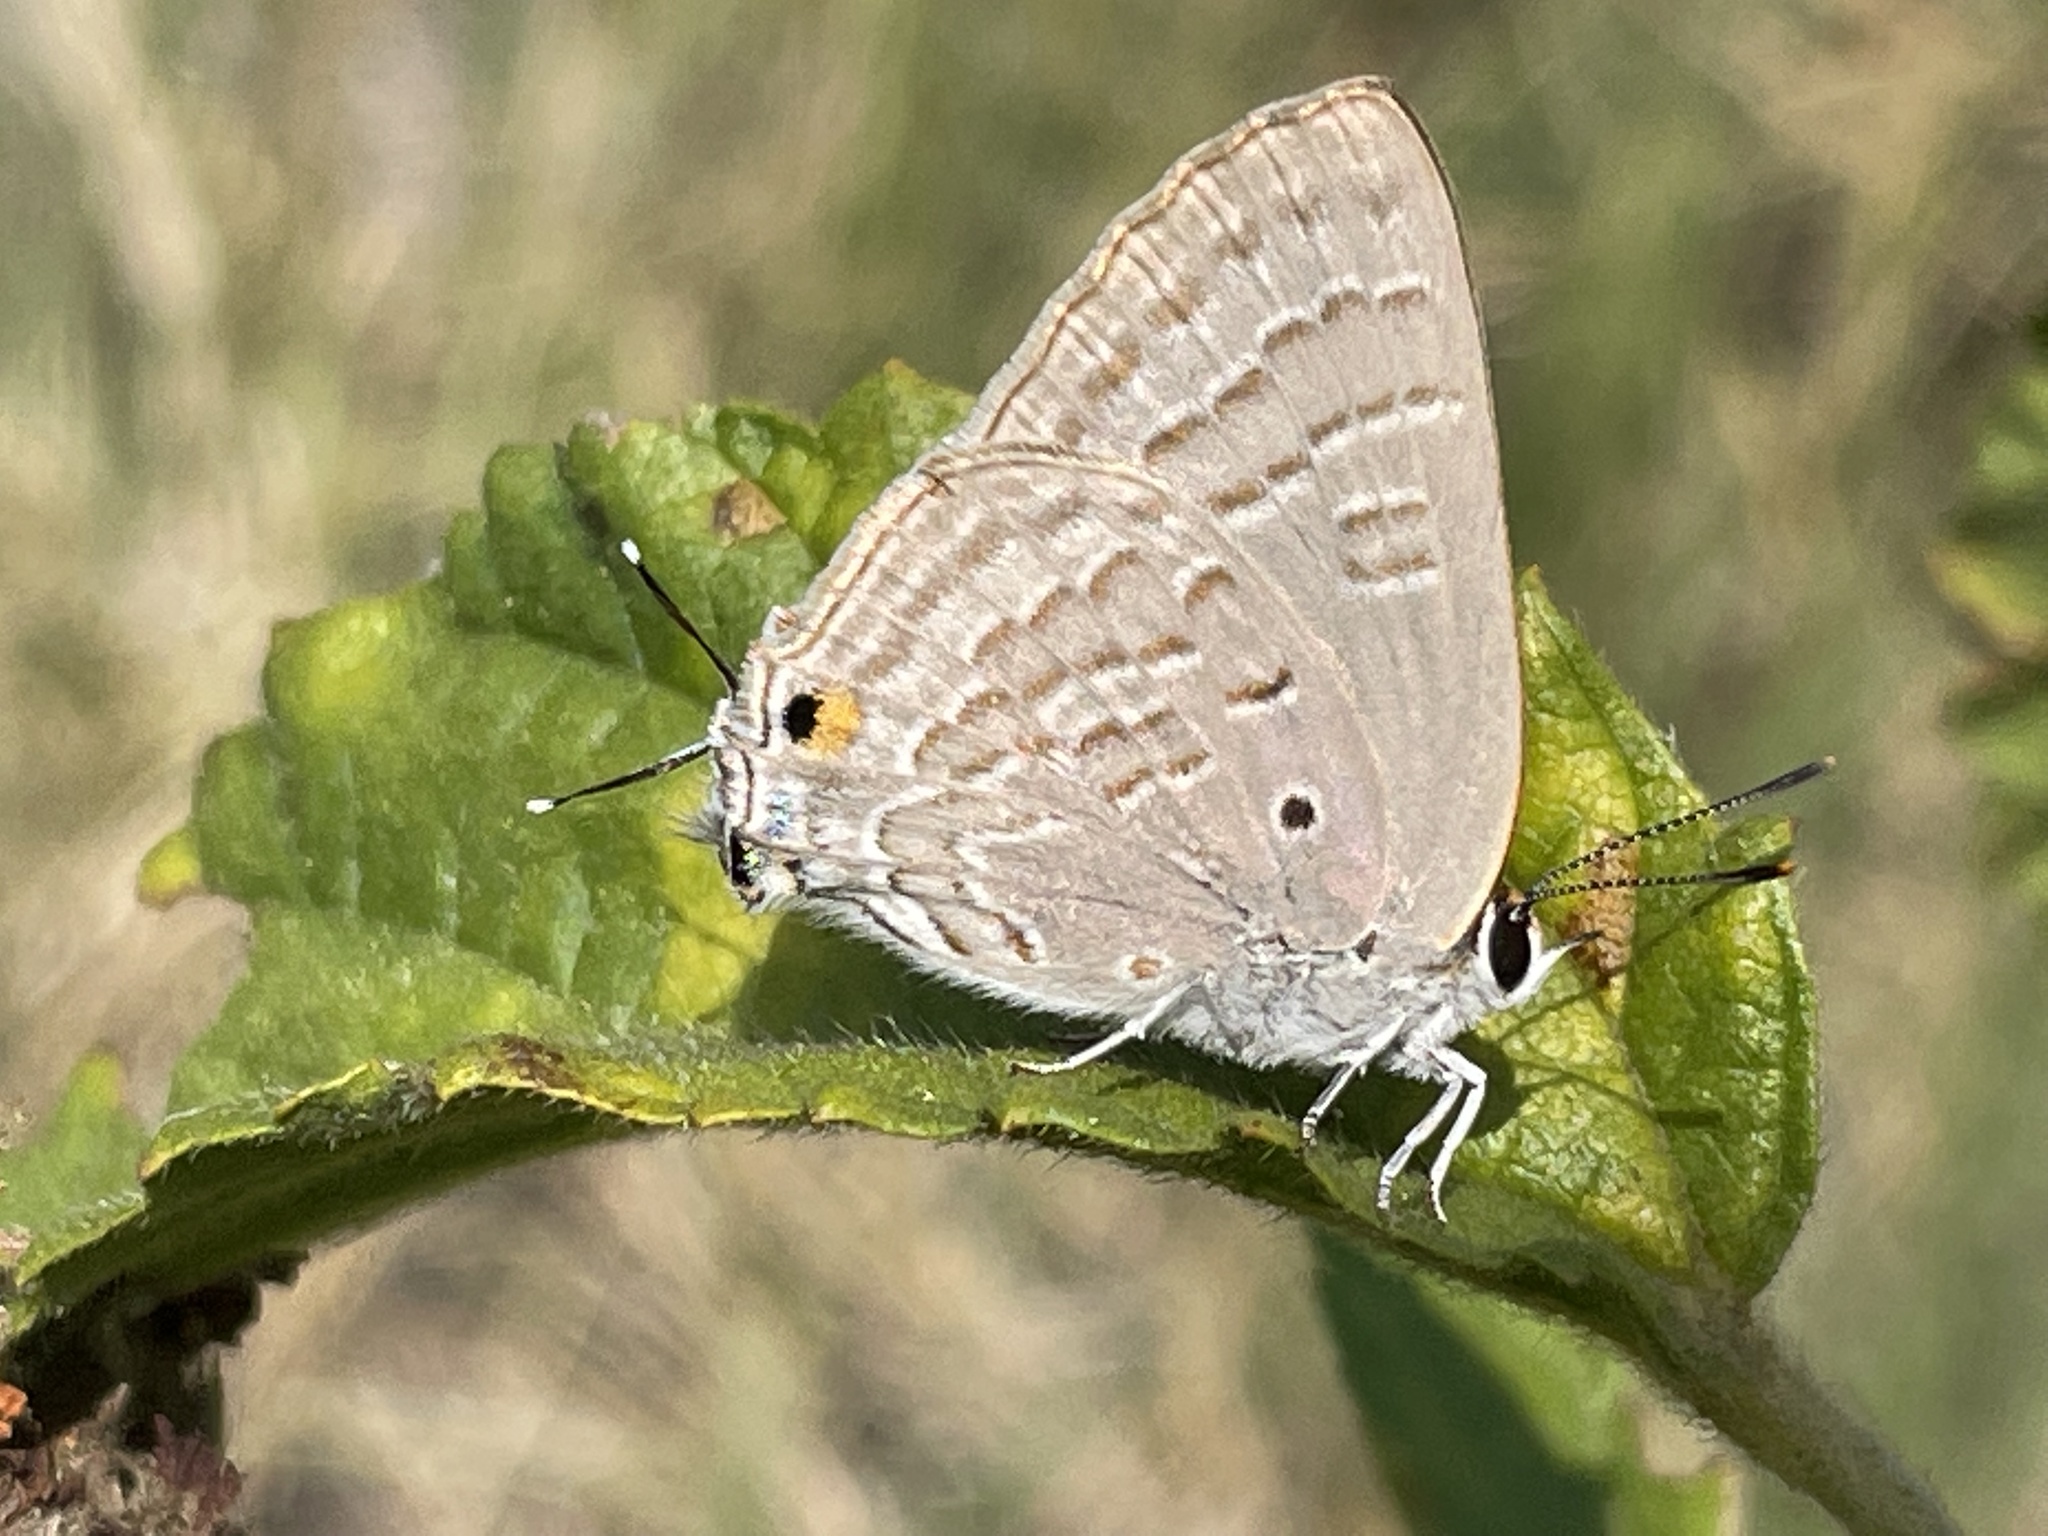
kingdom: Animalia
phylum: Arthropoda
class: Insecta
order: Lepidoptera
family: Lycaenidae
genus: Deudorix
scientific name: Deudorix antalus
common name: Brown playboy
